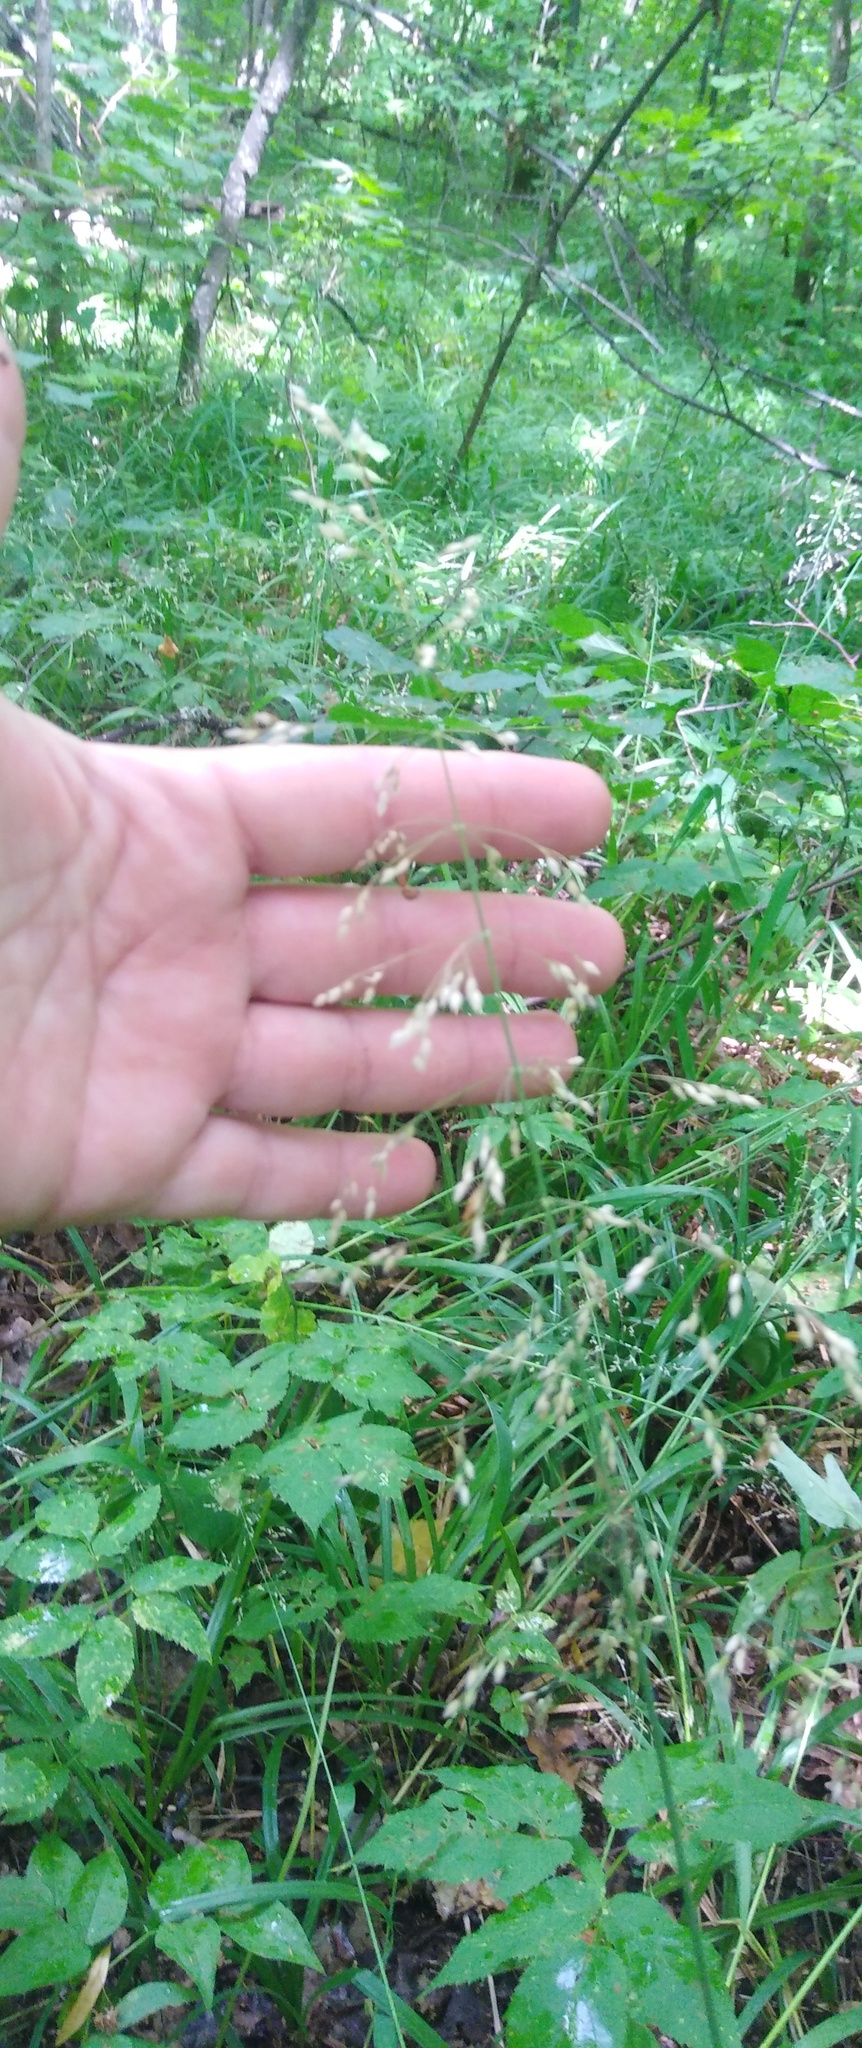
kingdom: Plantae
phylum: Tracheophyta
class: Liliopsida
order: Poales
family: Poaceae
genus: Milium
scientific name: Milium effusum
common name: Wood millet
